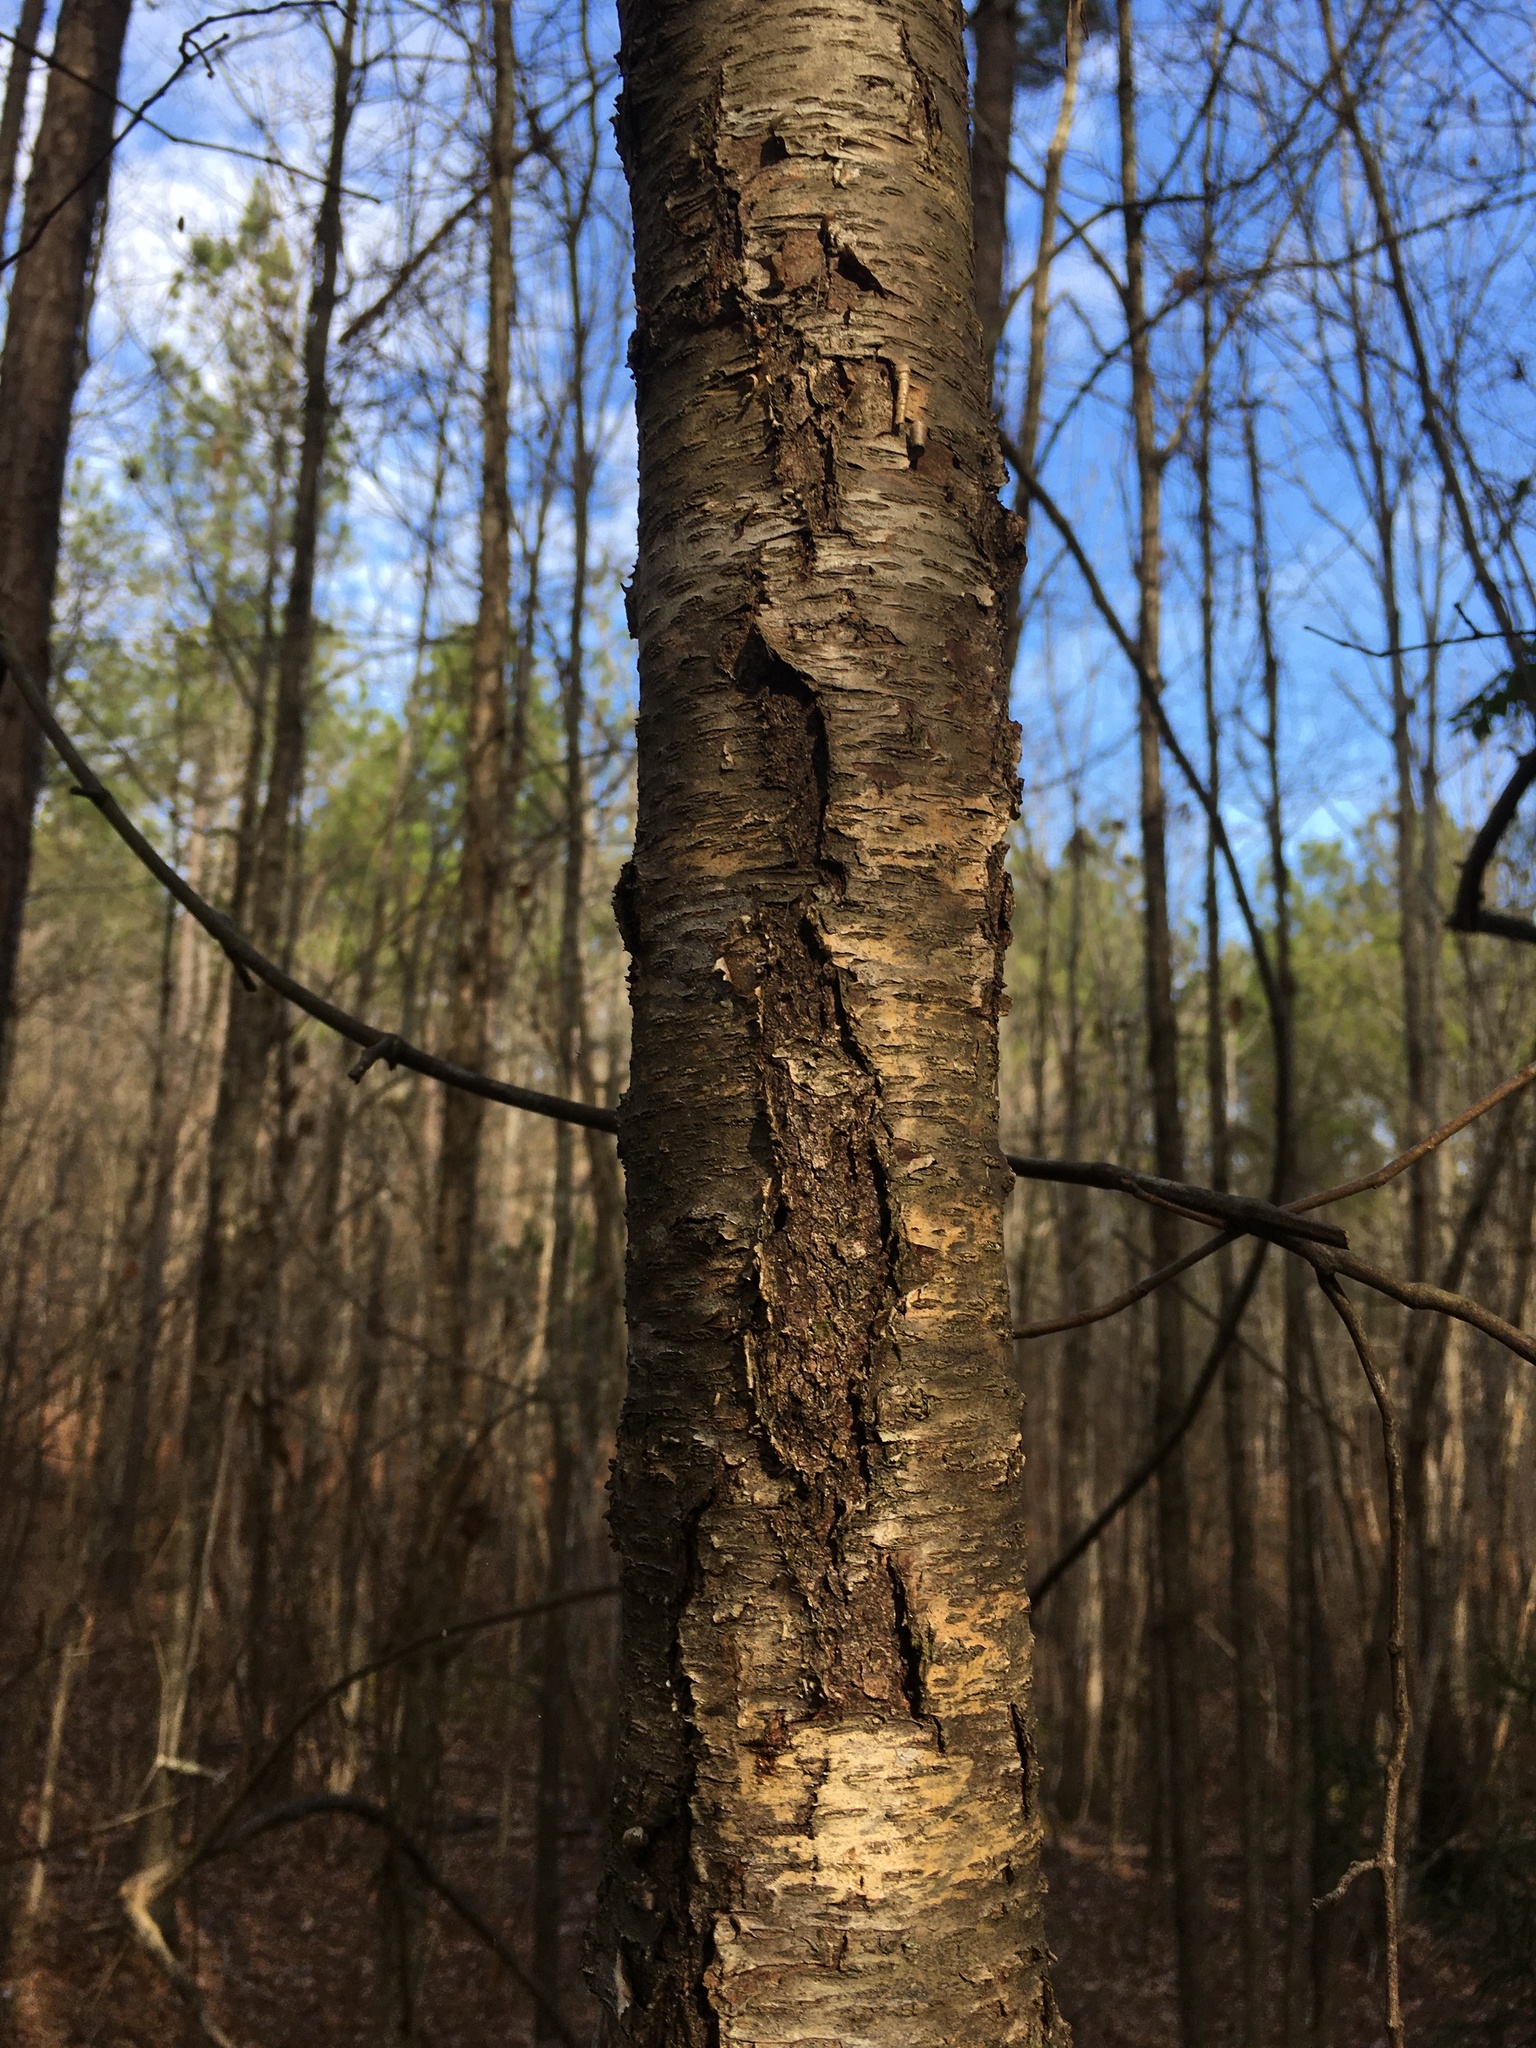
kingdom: Plantae
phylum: Tracheophyta
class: Magnoliopsida
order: Rosales
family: Rosaceae
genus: Prunus
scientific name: Prunus serotina
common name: Black cherry
